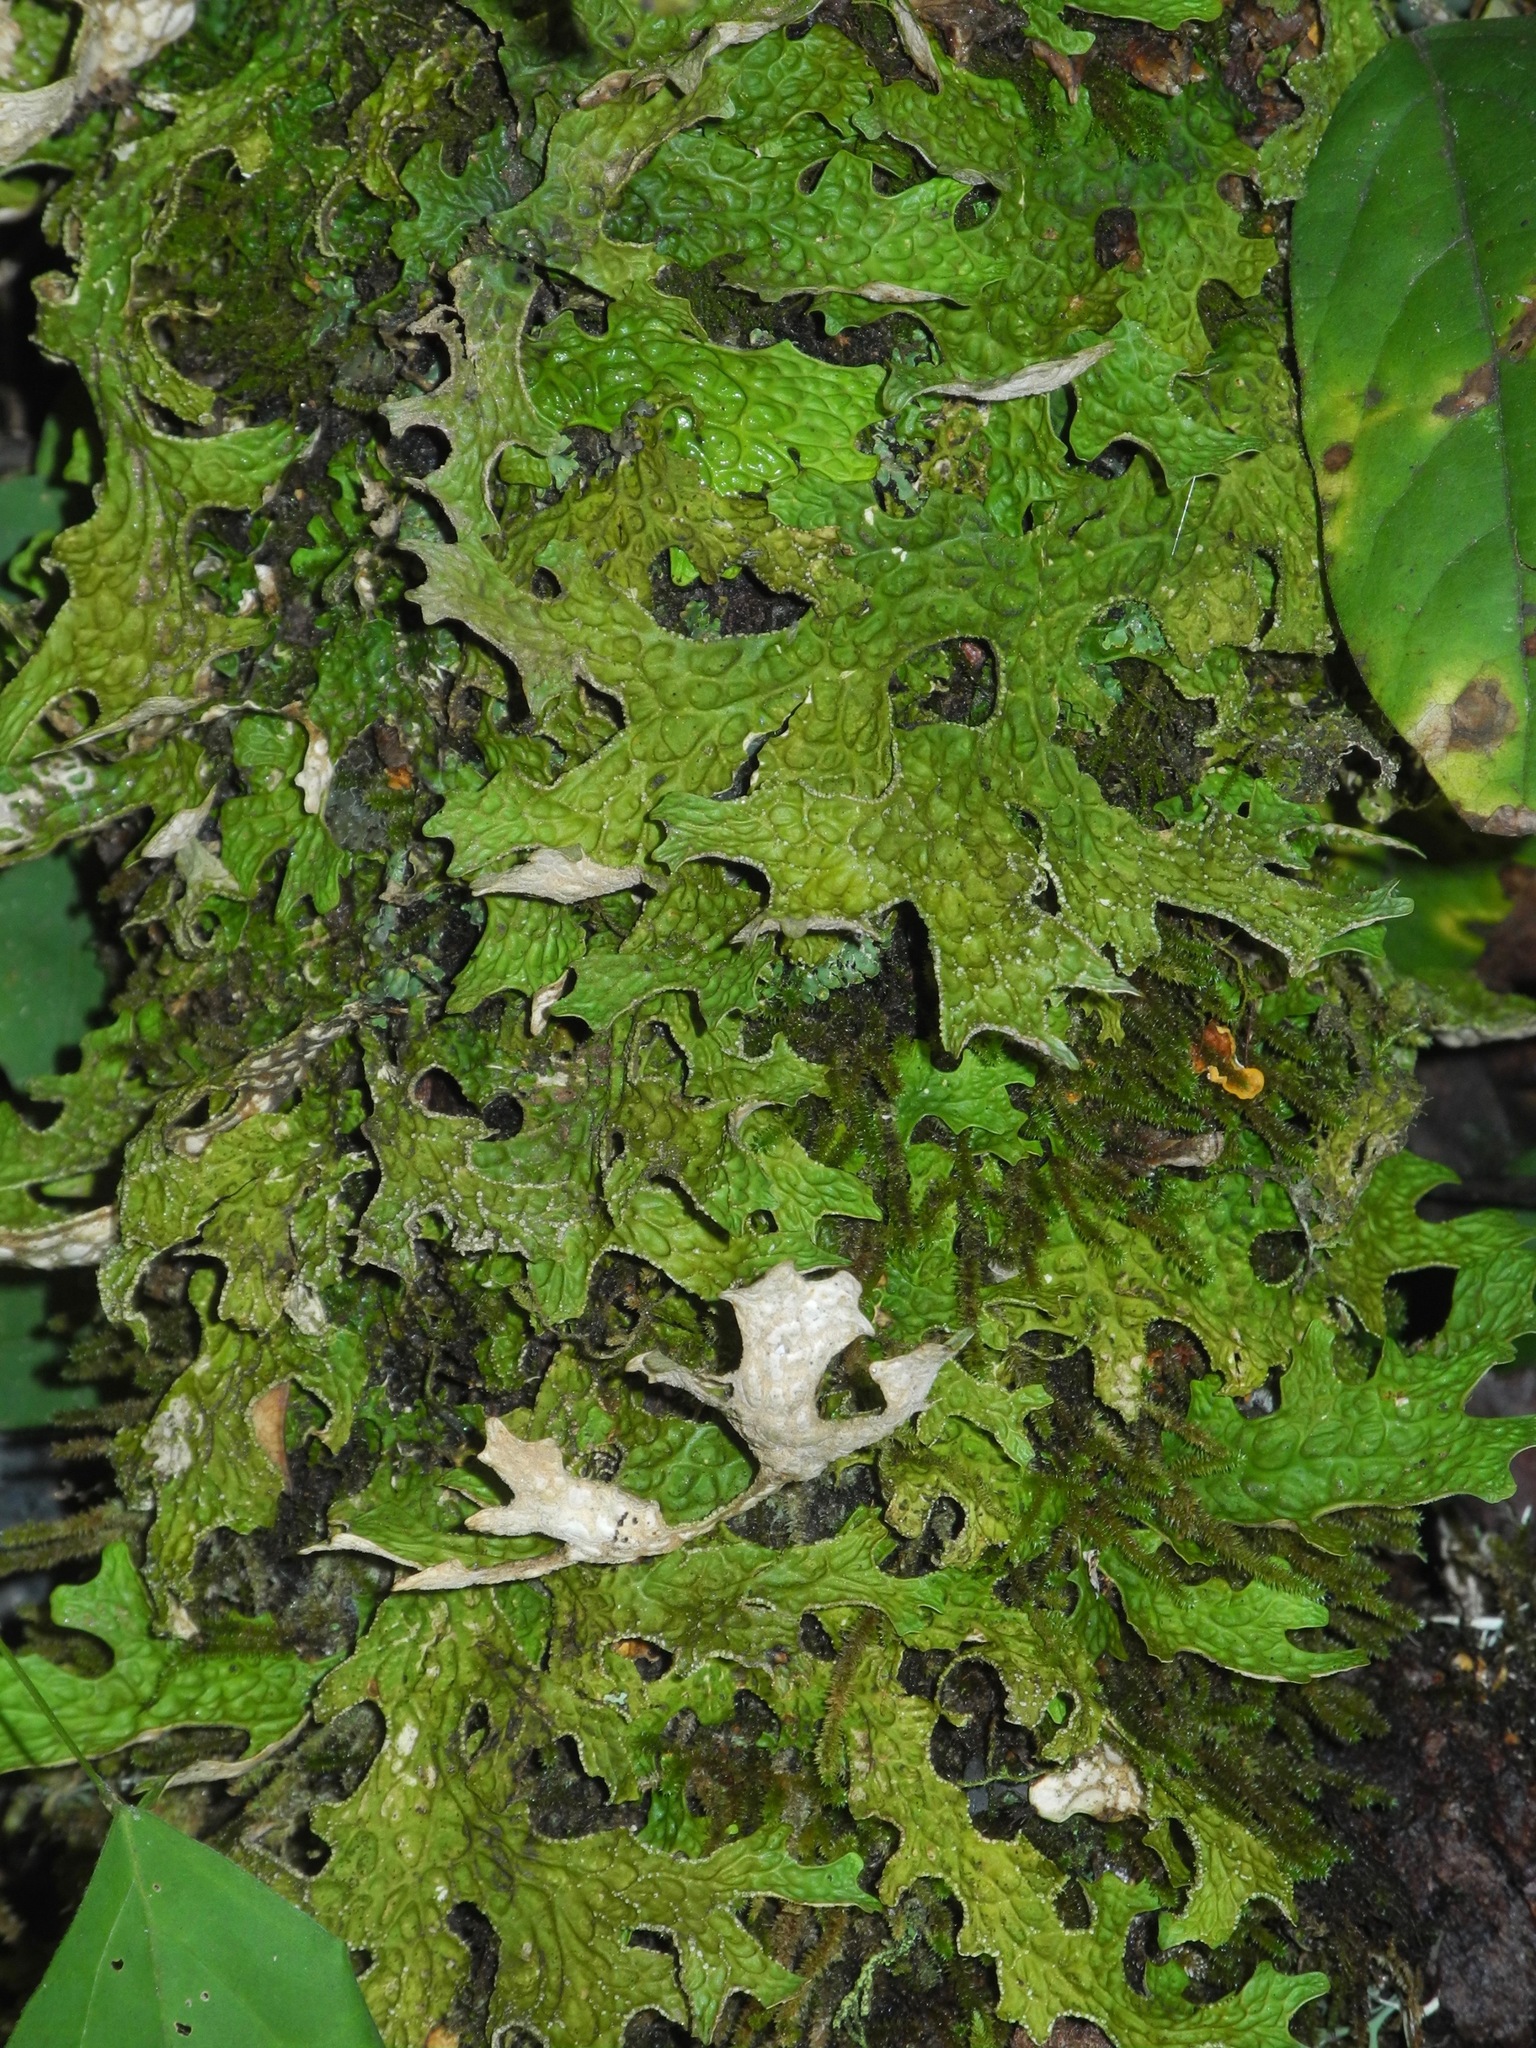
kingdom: Fungi
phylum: Ascomycota
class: Lecanoromycetes
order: Peltigerales
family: Lobariaceae
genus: Lobaria
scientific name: Lobaria pulmonaria
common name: Lungwort
